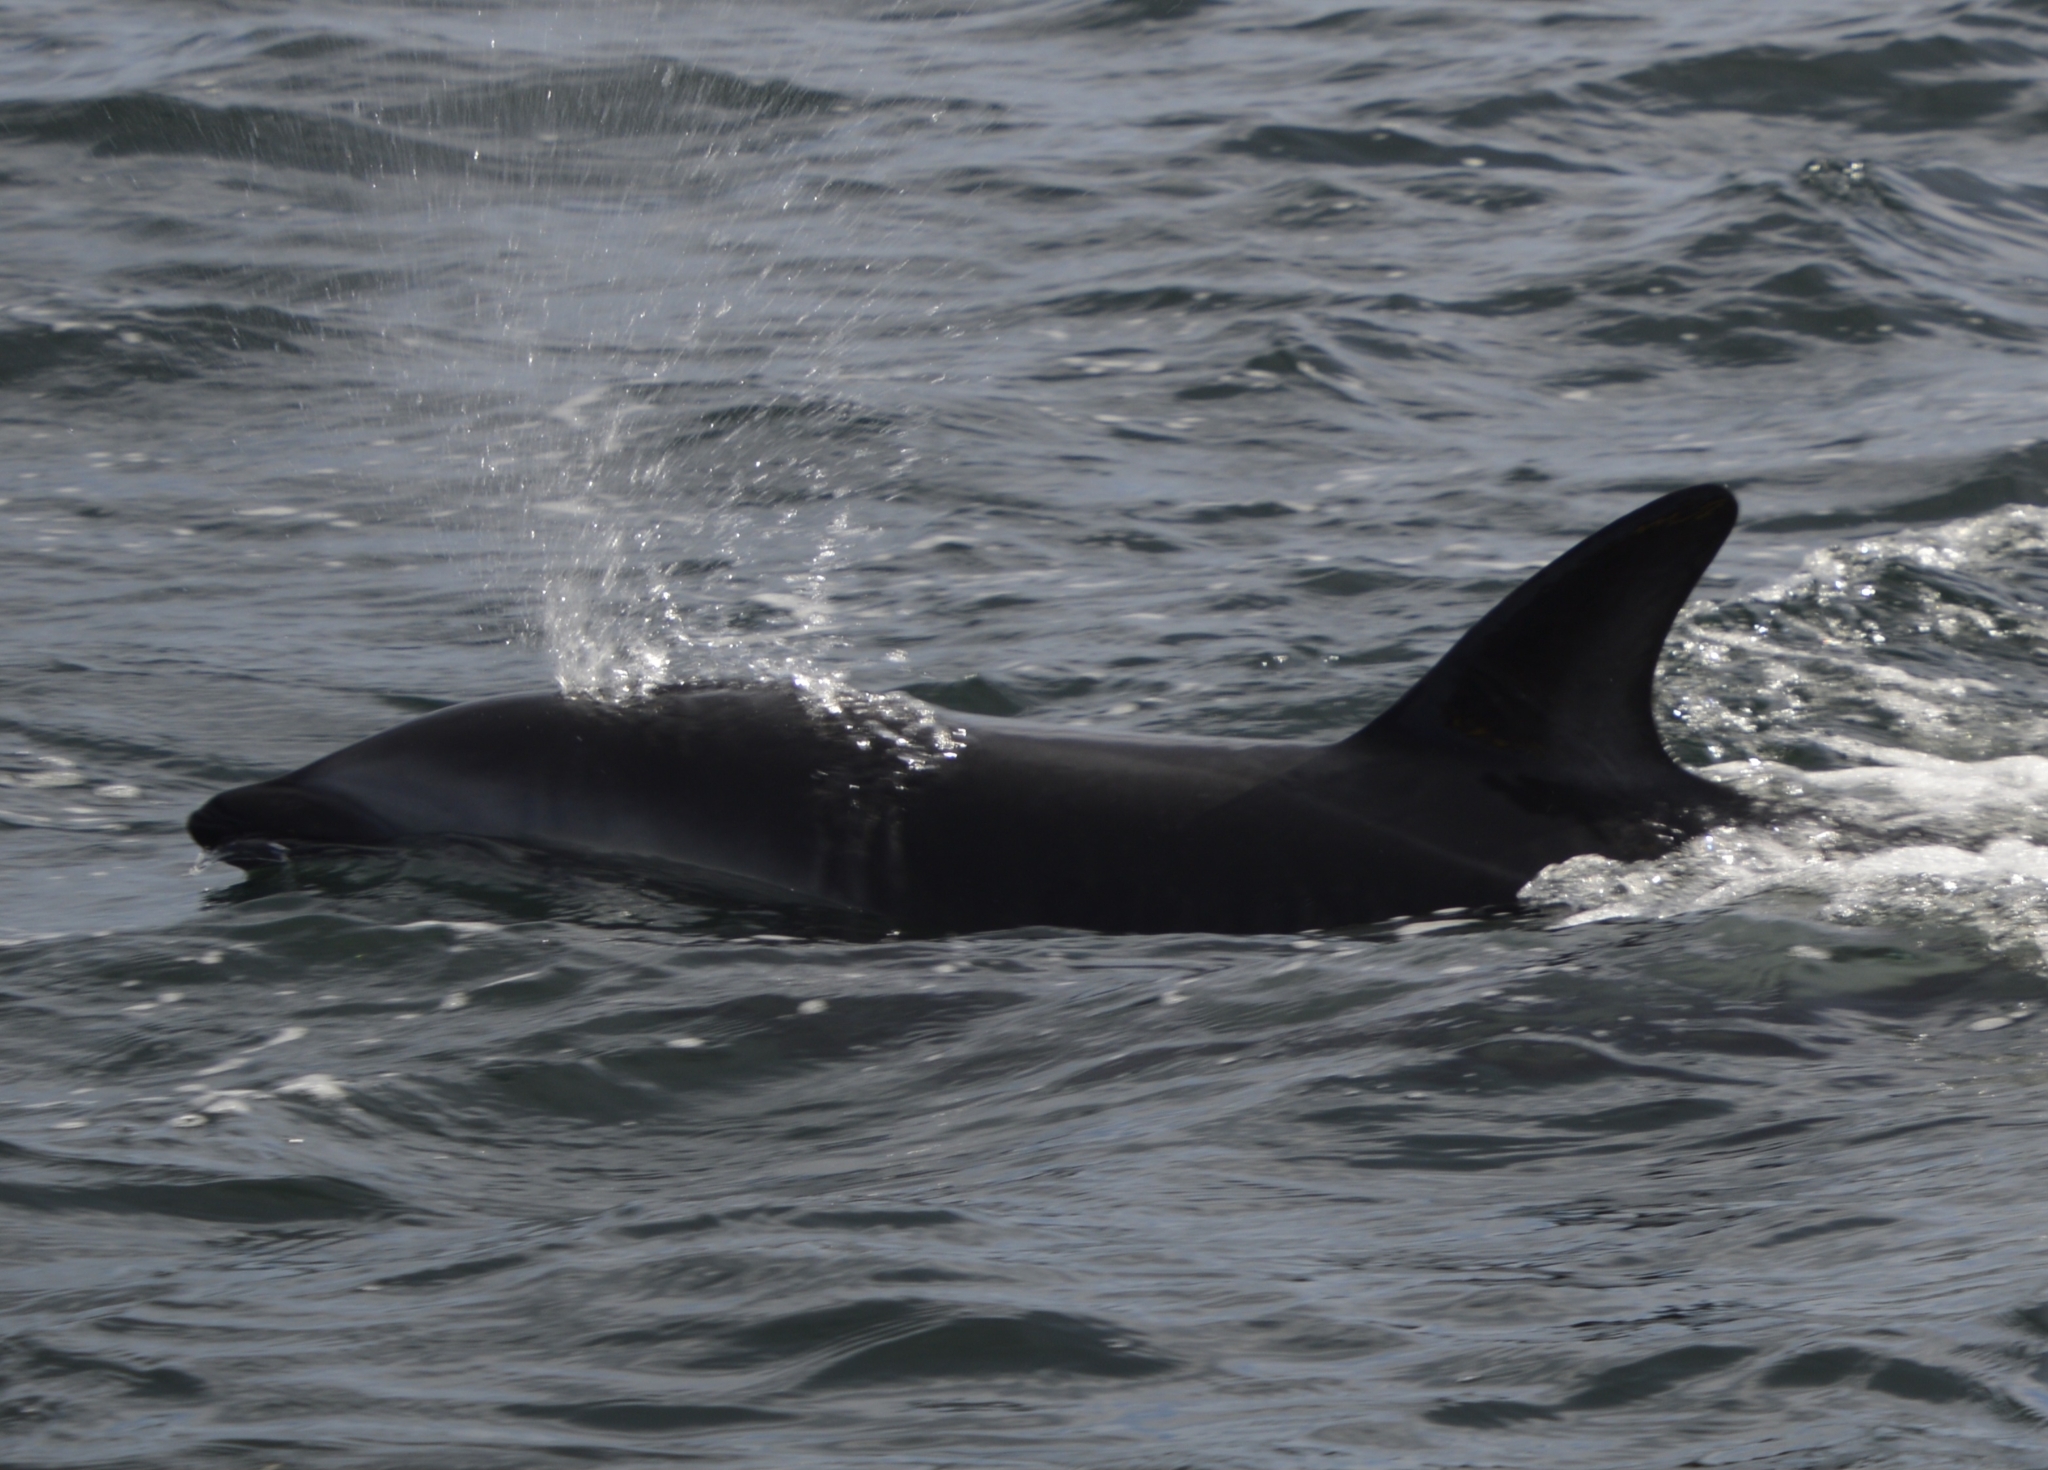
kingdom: Animalia
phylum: Chordata
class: Mammalia
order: Cetacea
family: Delphinidae
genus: Lagenorhynchus
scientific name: Lagenorhynchus obscurus
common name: Dusky dolphin
